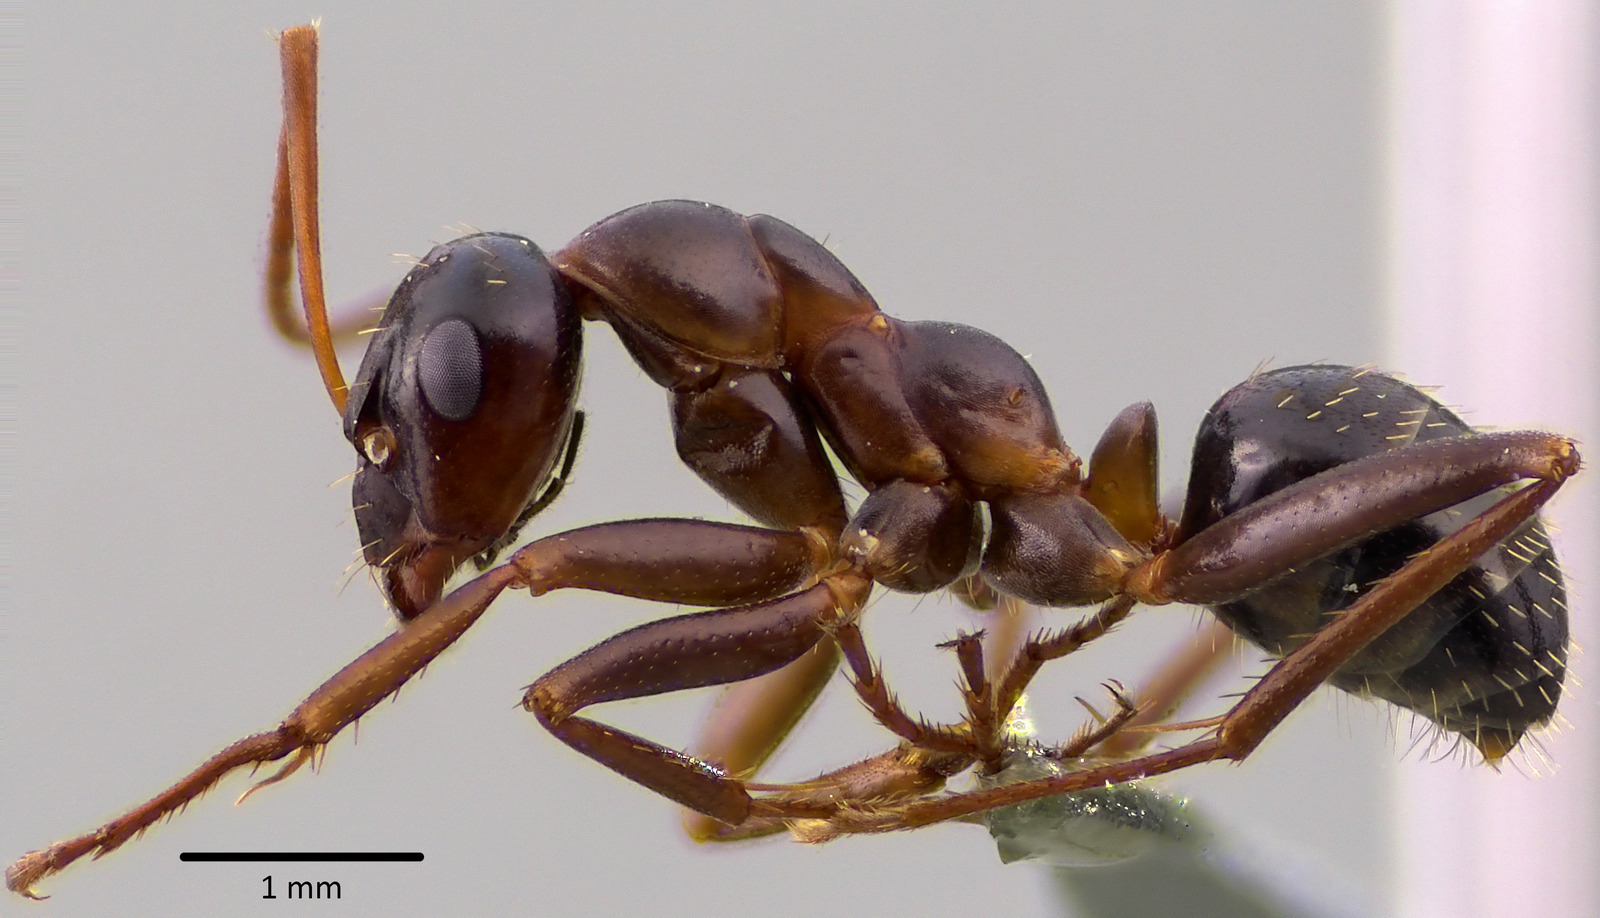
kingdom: Animalia
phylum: Arthropoda
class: Insecta
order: Hymenoptera
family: Formicidae
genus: Formica
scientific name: Formica pallidefulva
